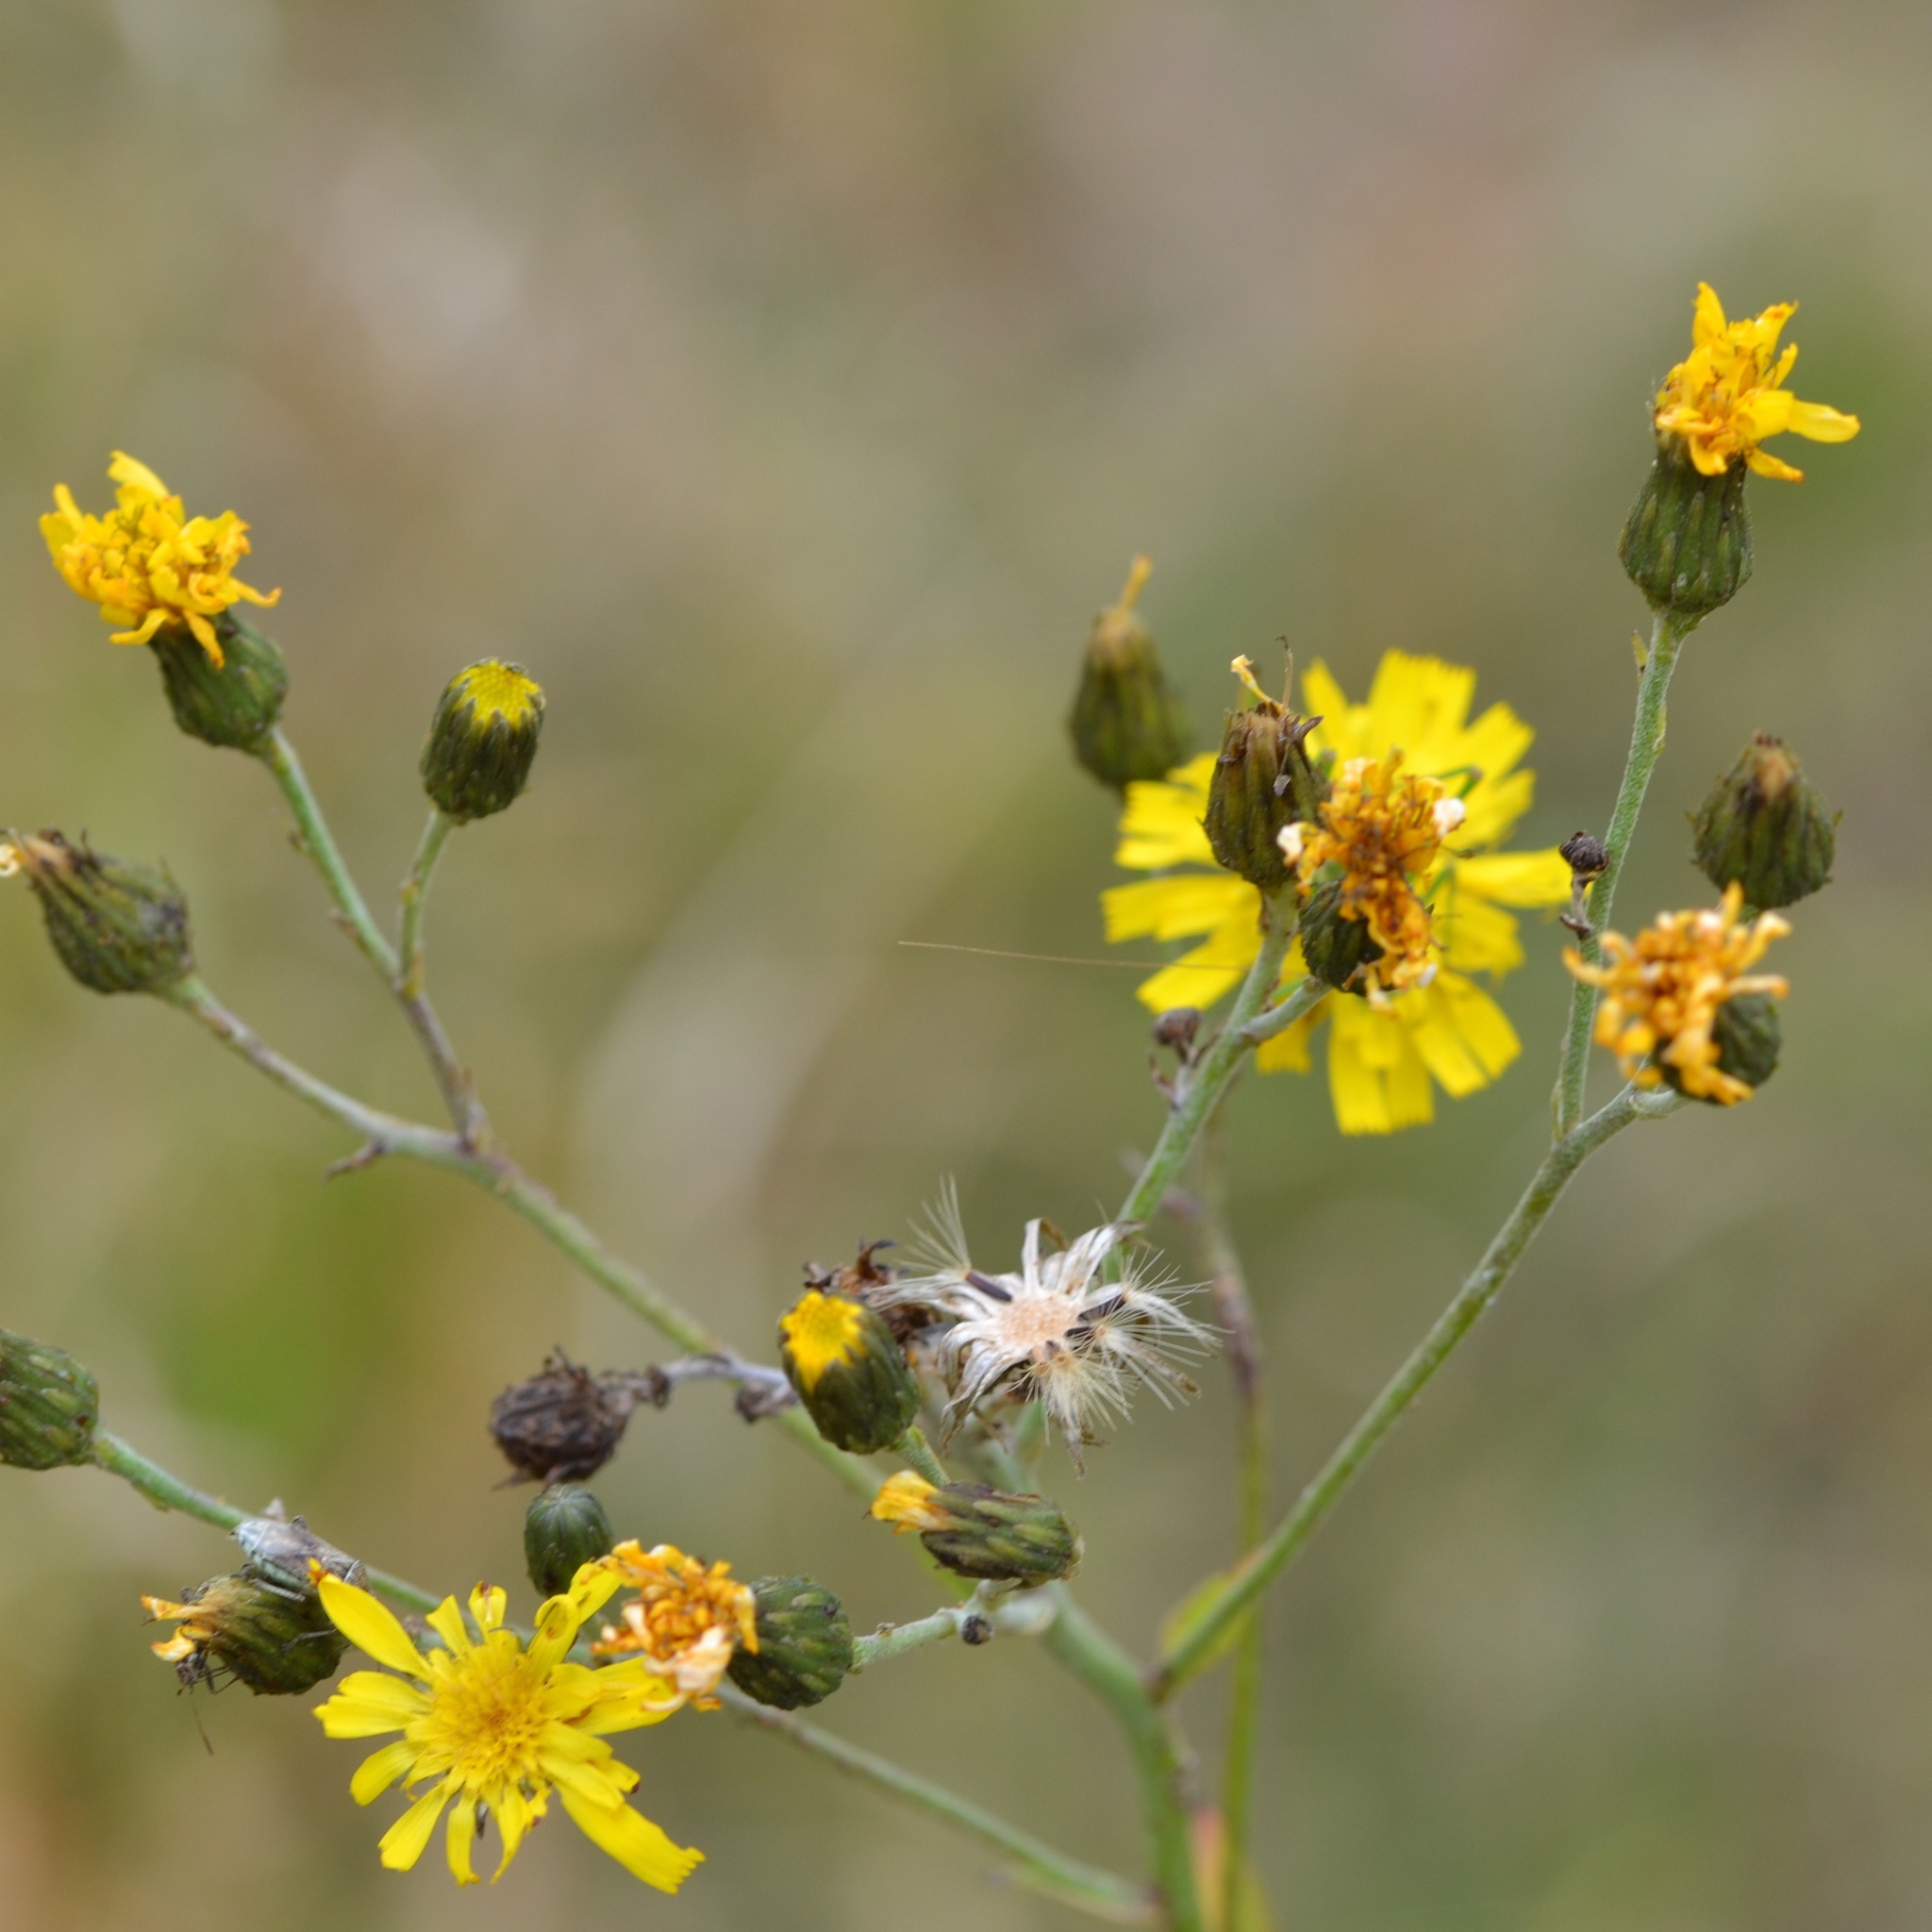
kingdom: Plantae
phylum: Tracheophyta
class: Magnoliopsida
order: Asterales
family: Asteraceae
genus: Hieracium
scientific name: Hieracium sabaudum
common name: New england hawkweed
